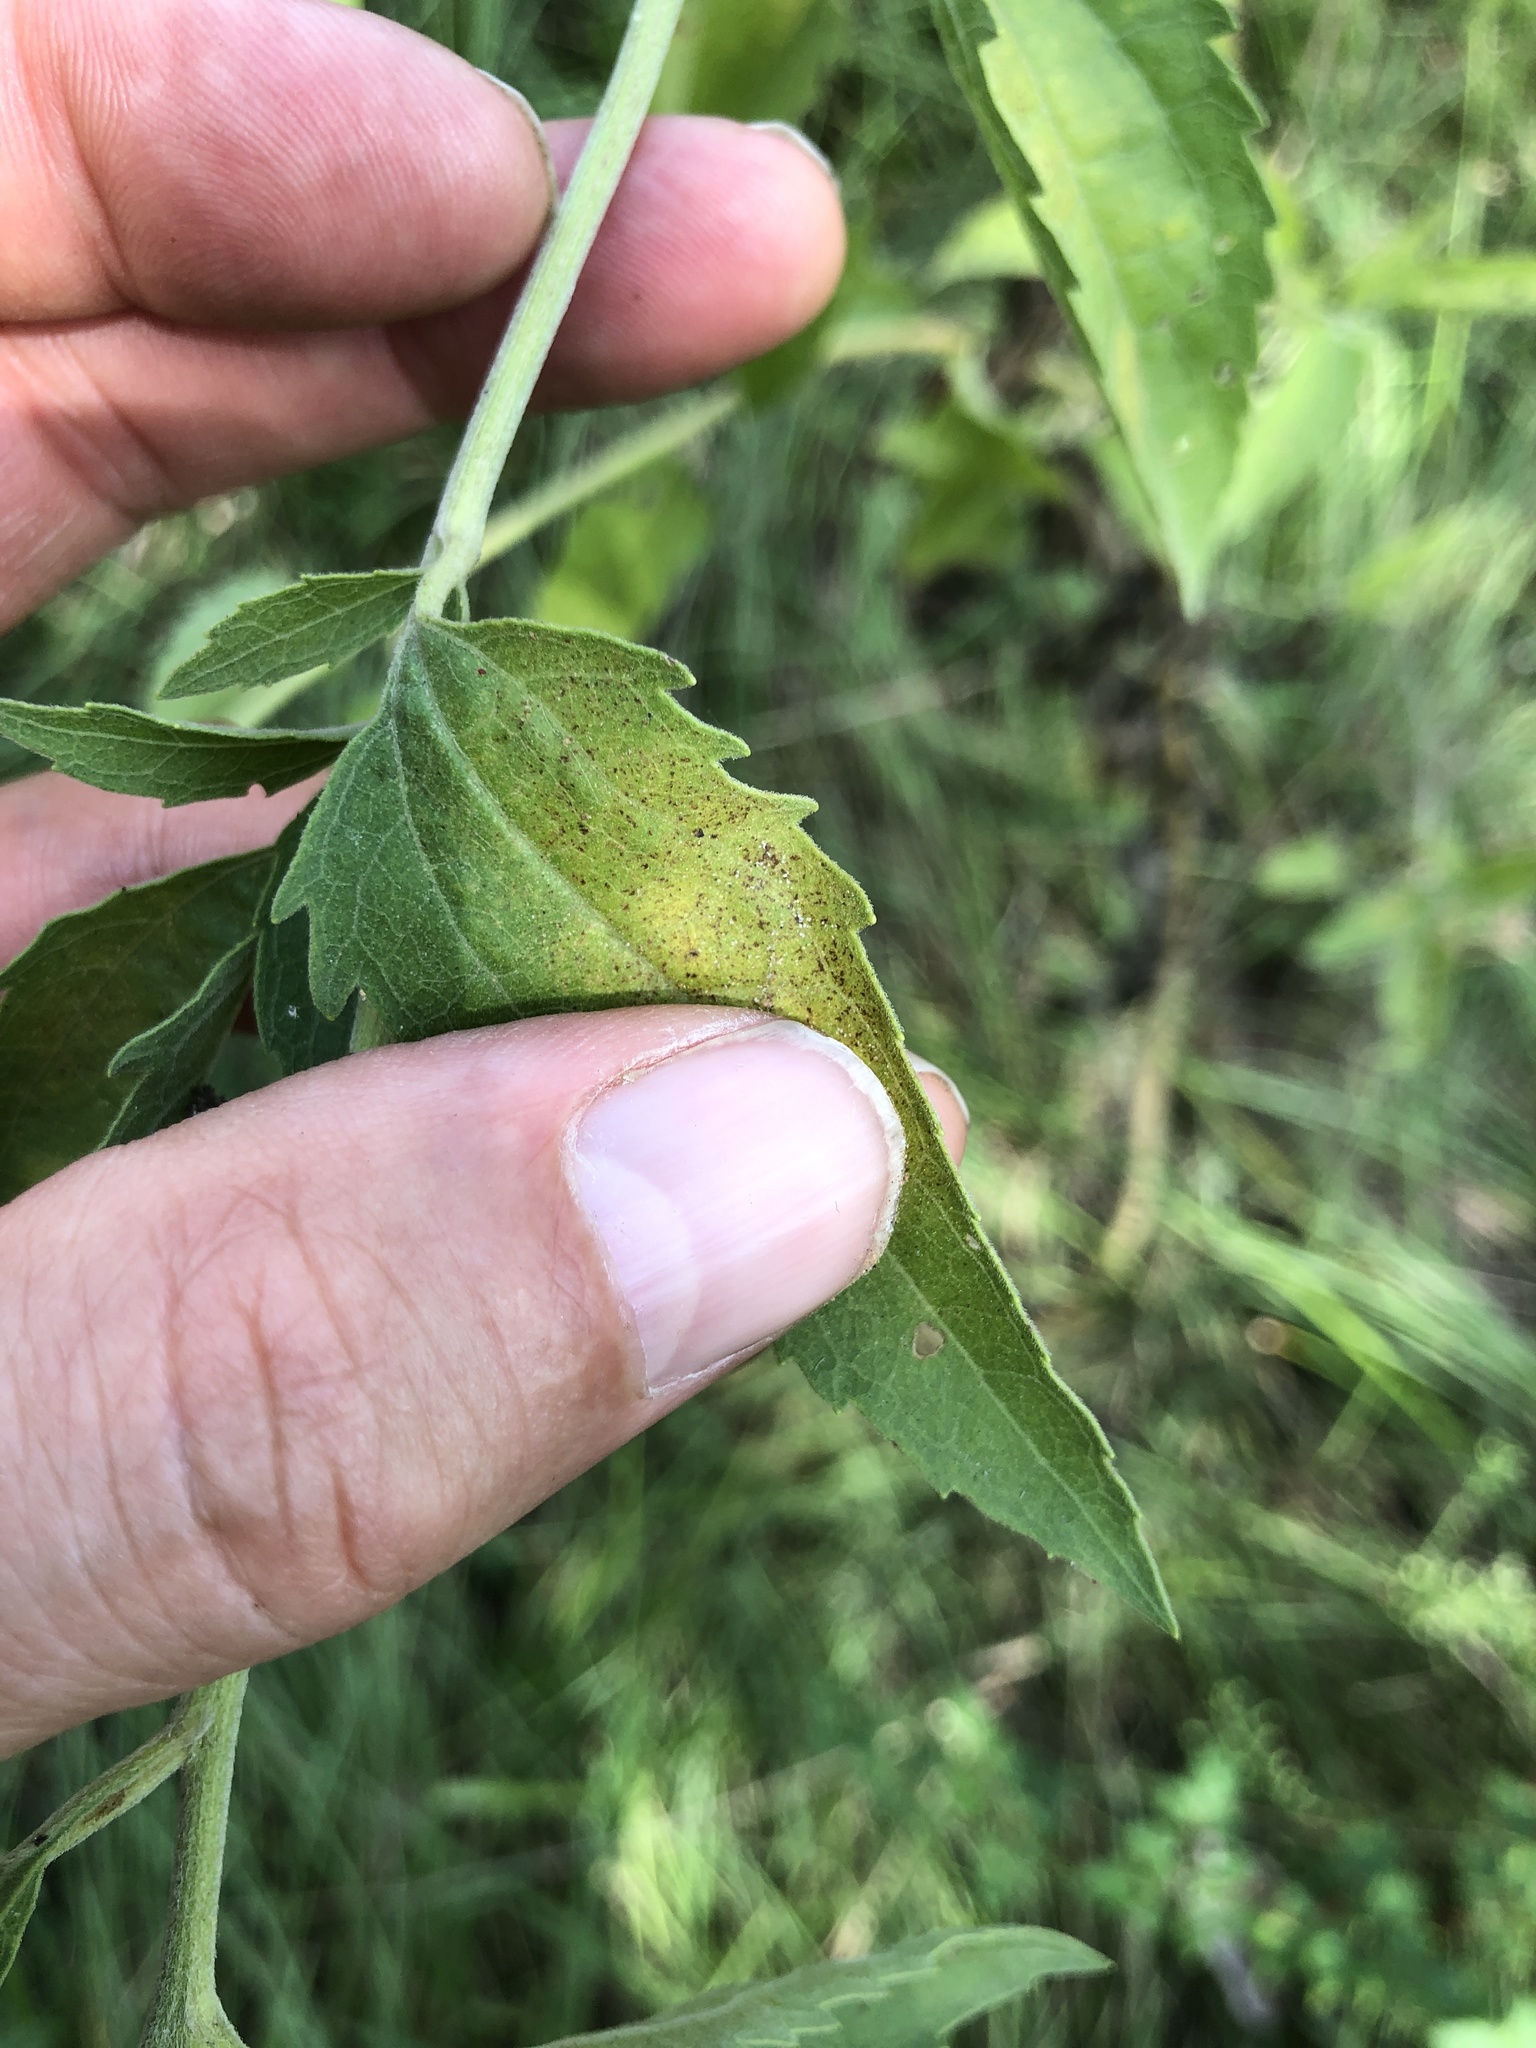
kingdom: Plantae
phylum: Tracheophyta
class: Magnoliopsida
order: Asterales
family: Asteraceae
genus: Eupatorium
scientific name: Eupatorium serotinum
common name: Late boneset
